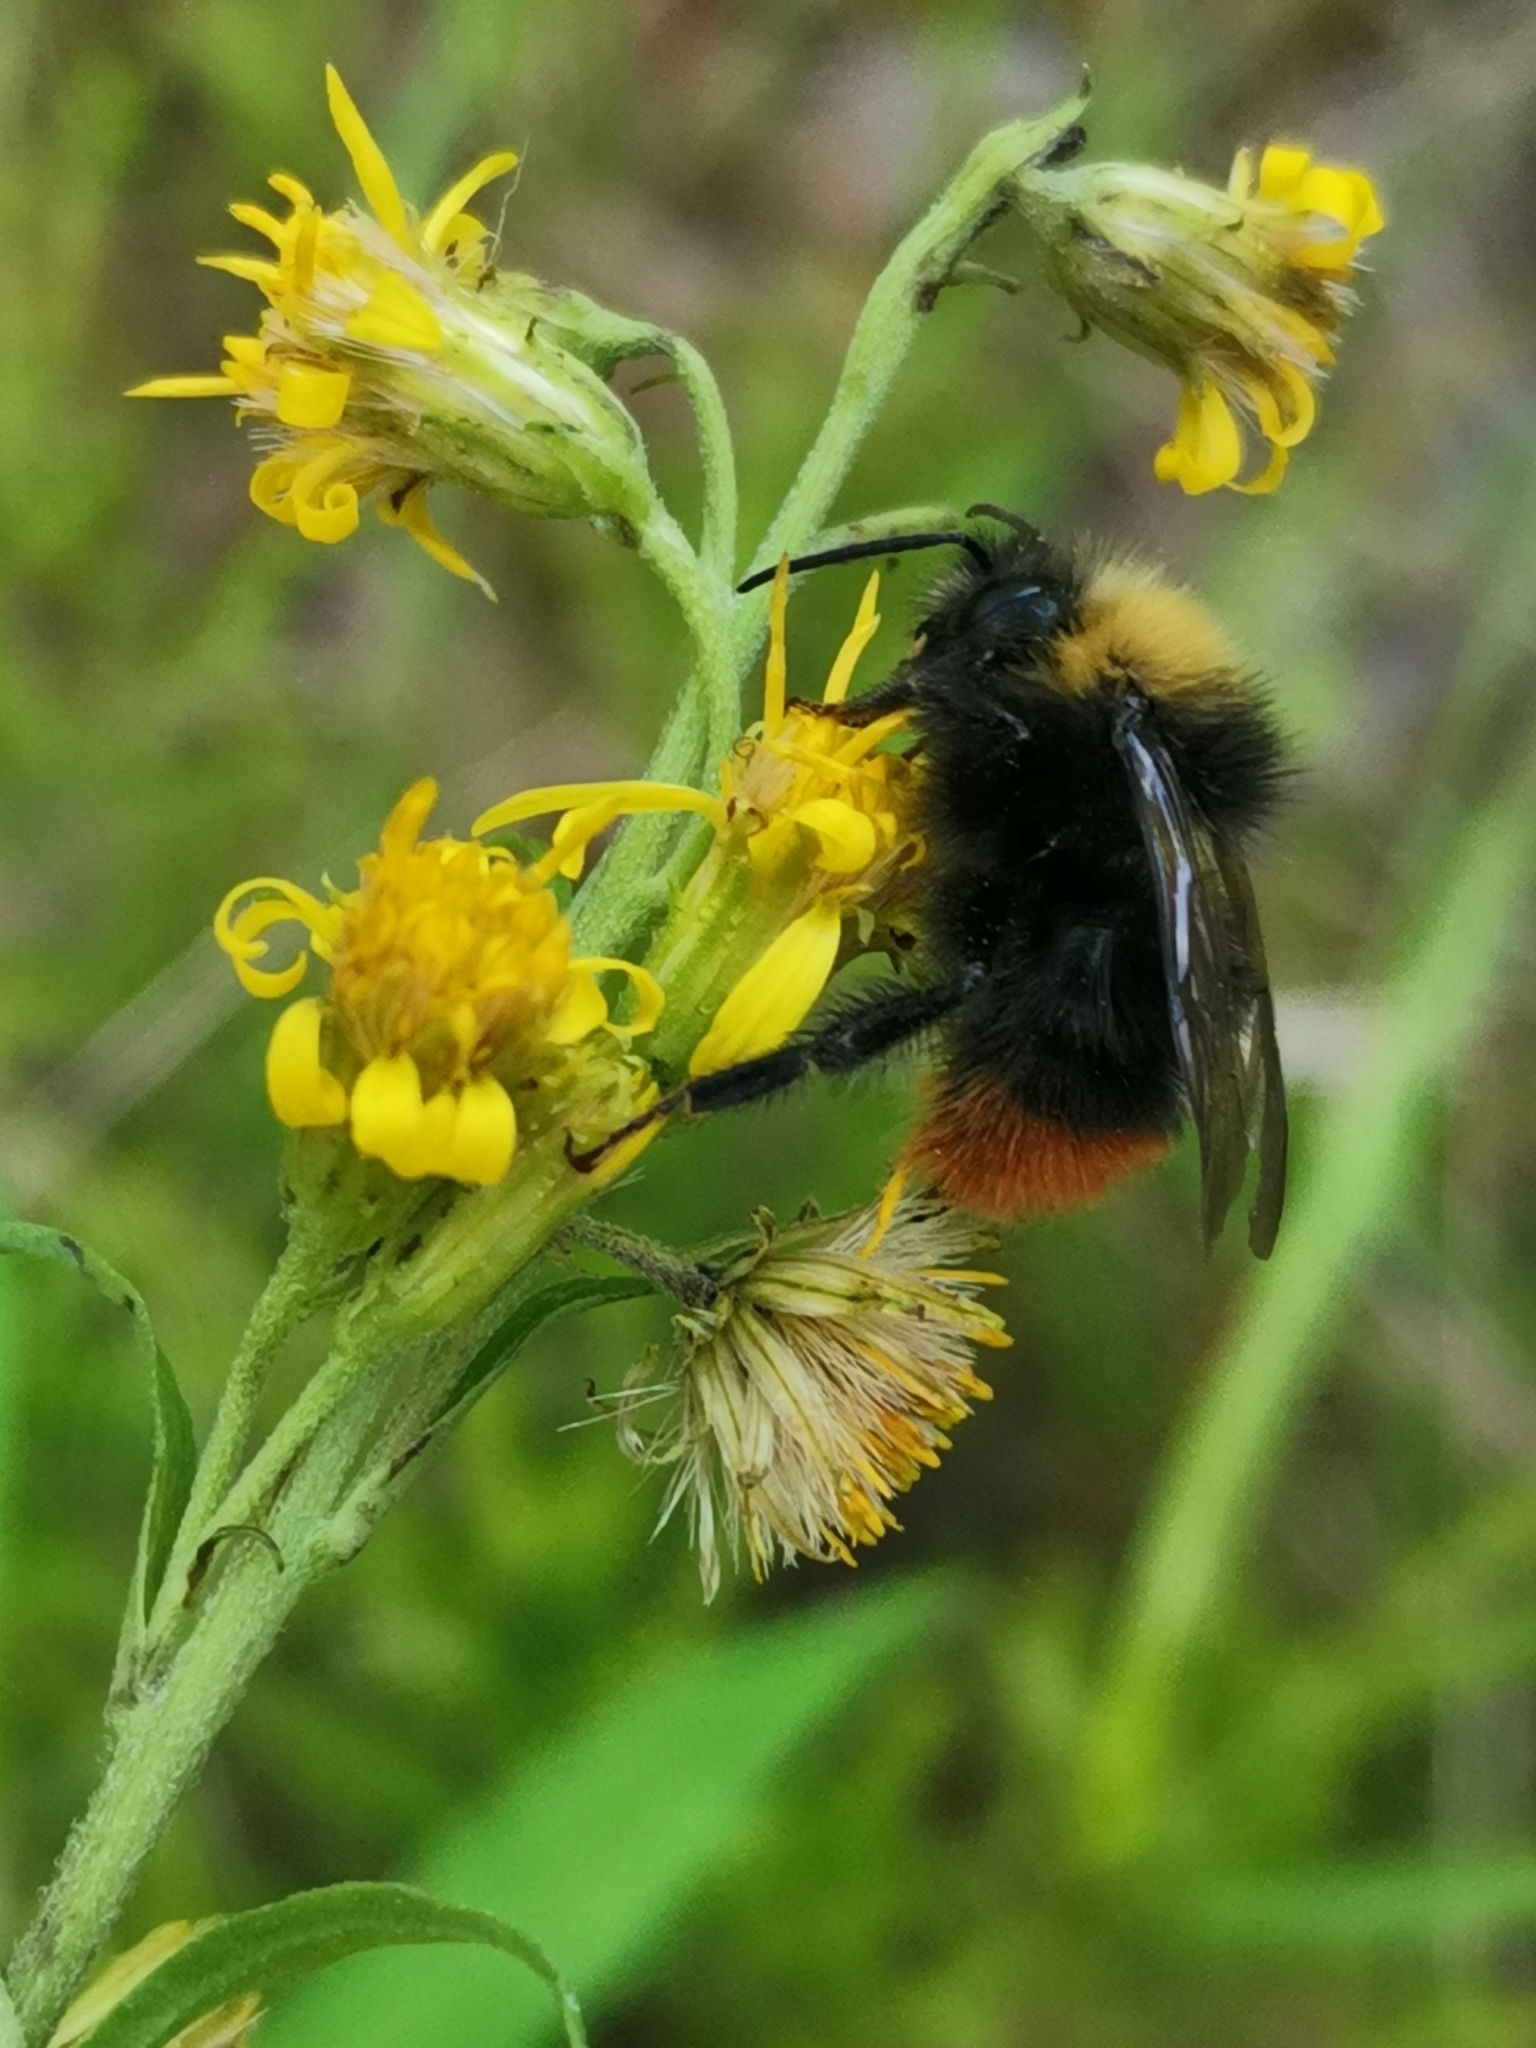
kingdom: Animalia
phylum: Arthropoda
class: Insecta
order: Hymenoptera
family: Apidae
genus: Bombus
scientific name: Bombus pratorum
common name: Early humble-bee
